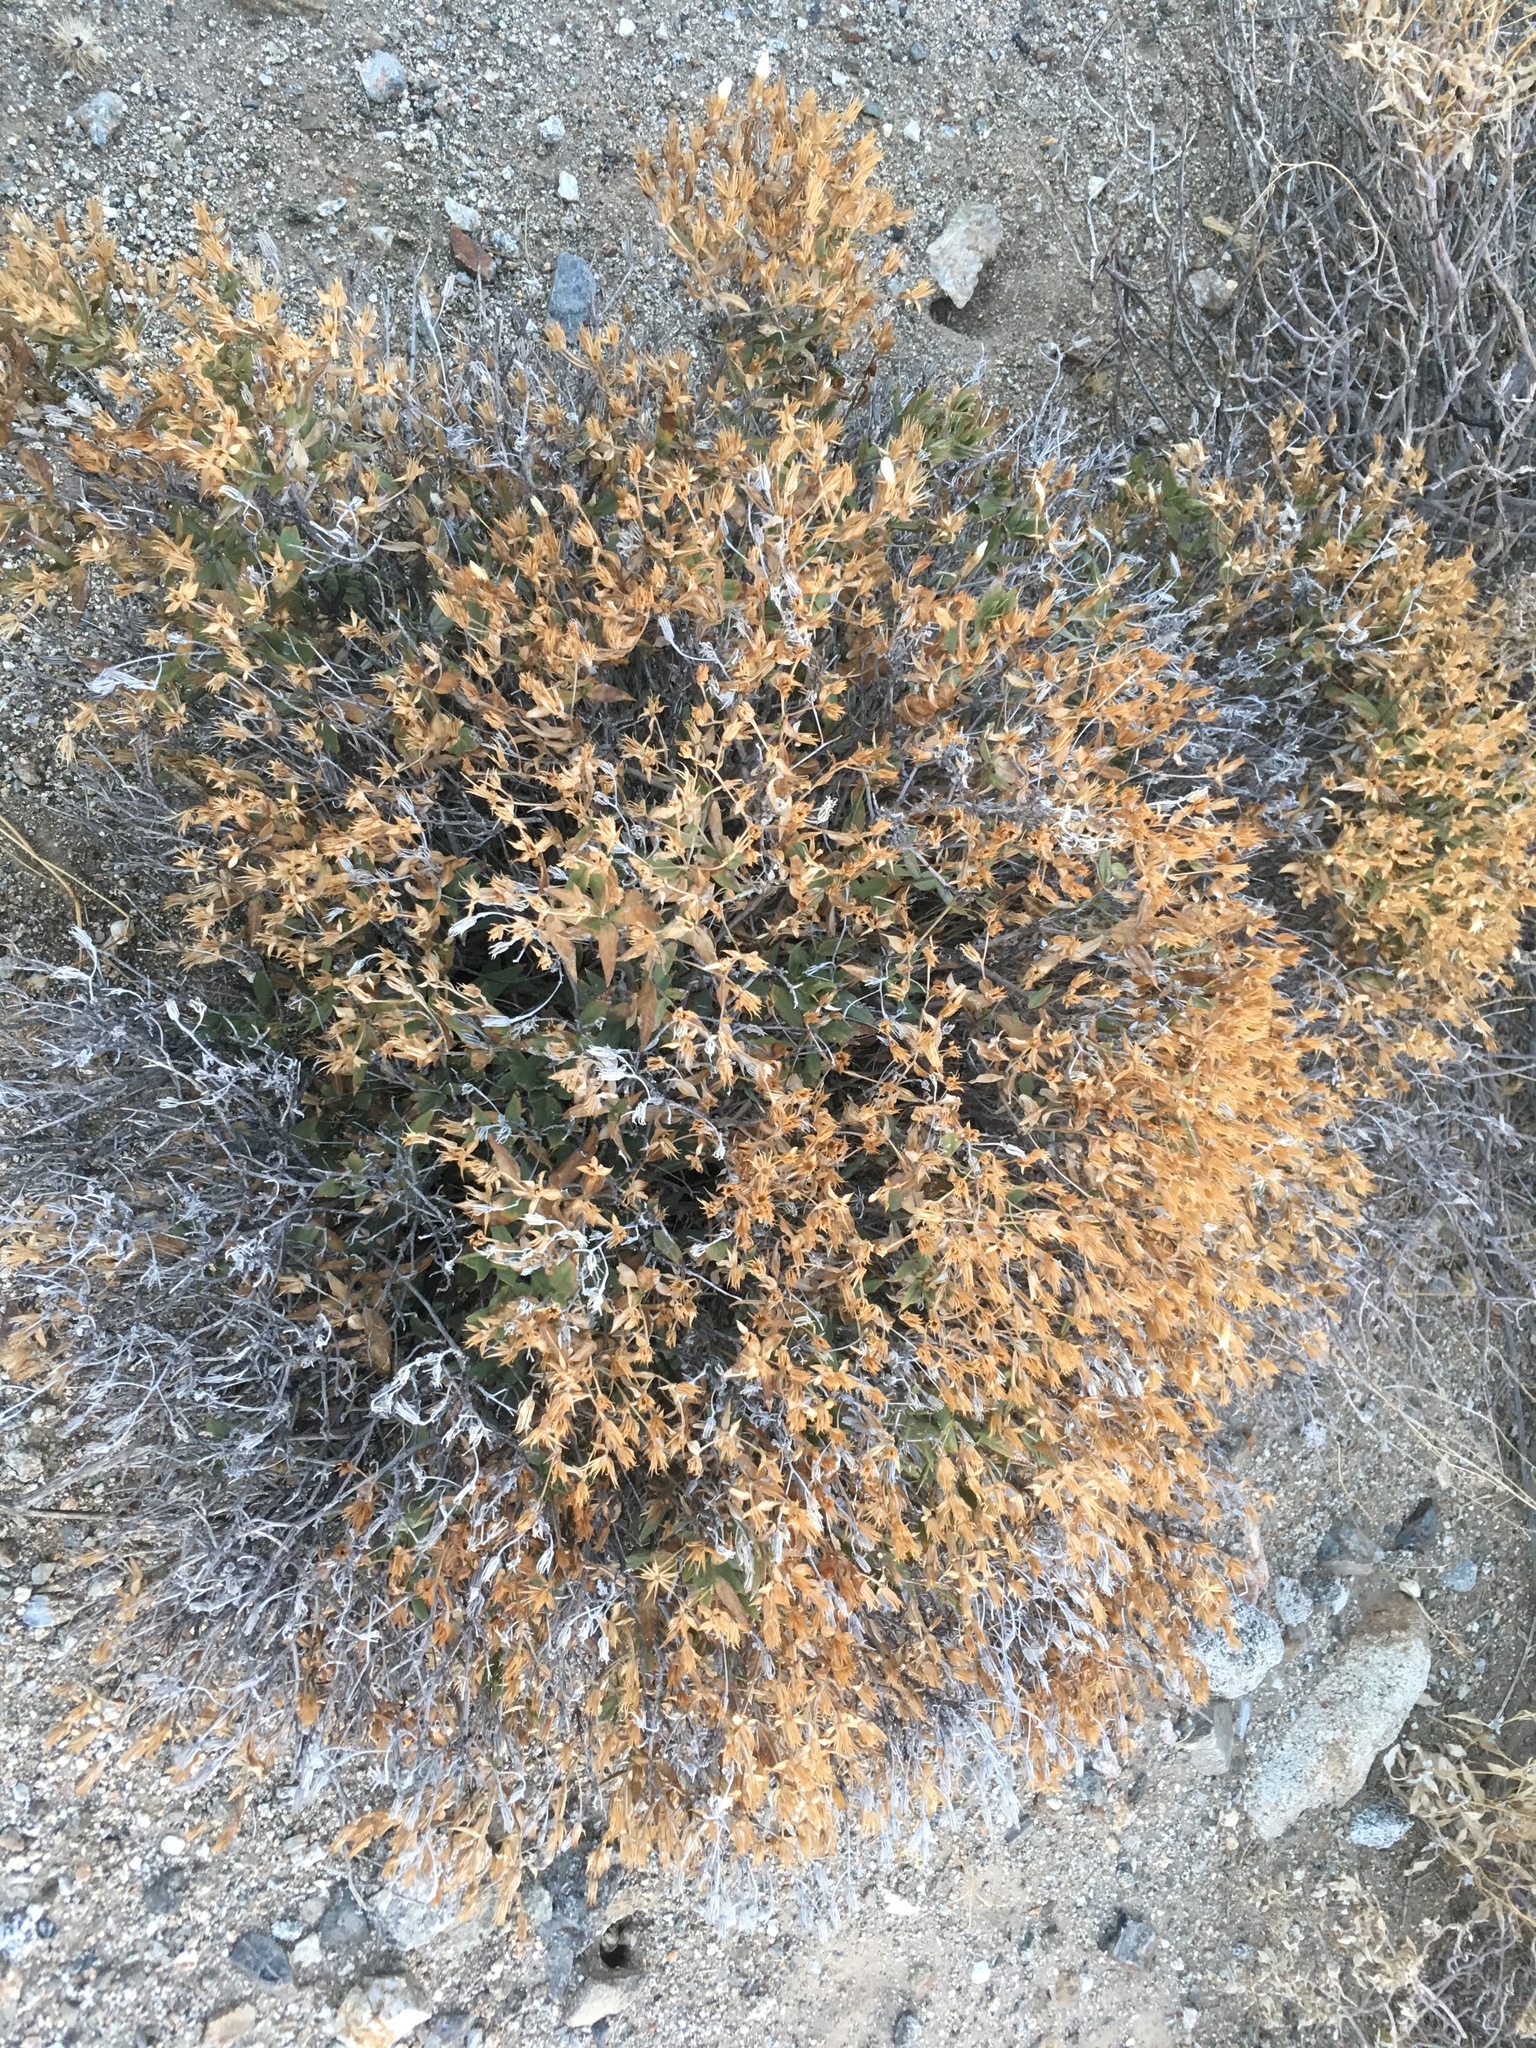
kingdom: Plantae
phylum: Tracheophyta
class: Magnoliopsida
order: Asterales
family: Asteraceae
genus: Trixis
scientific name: Trixis californica
